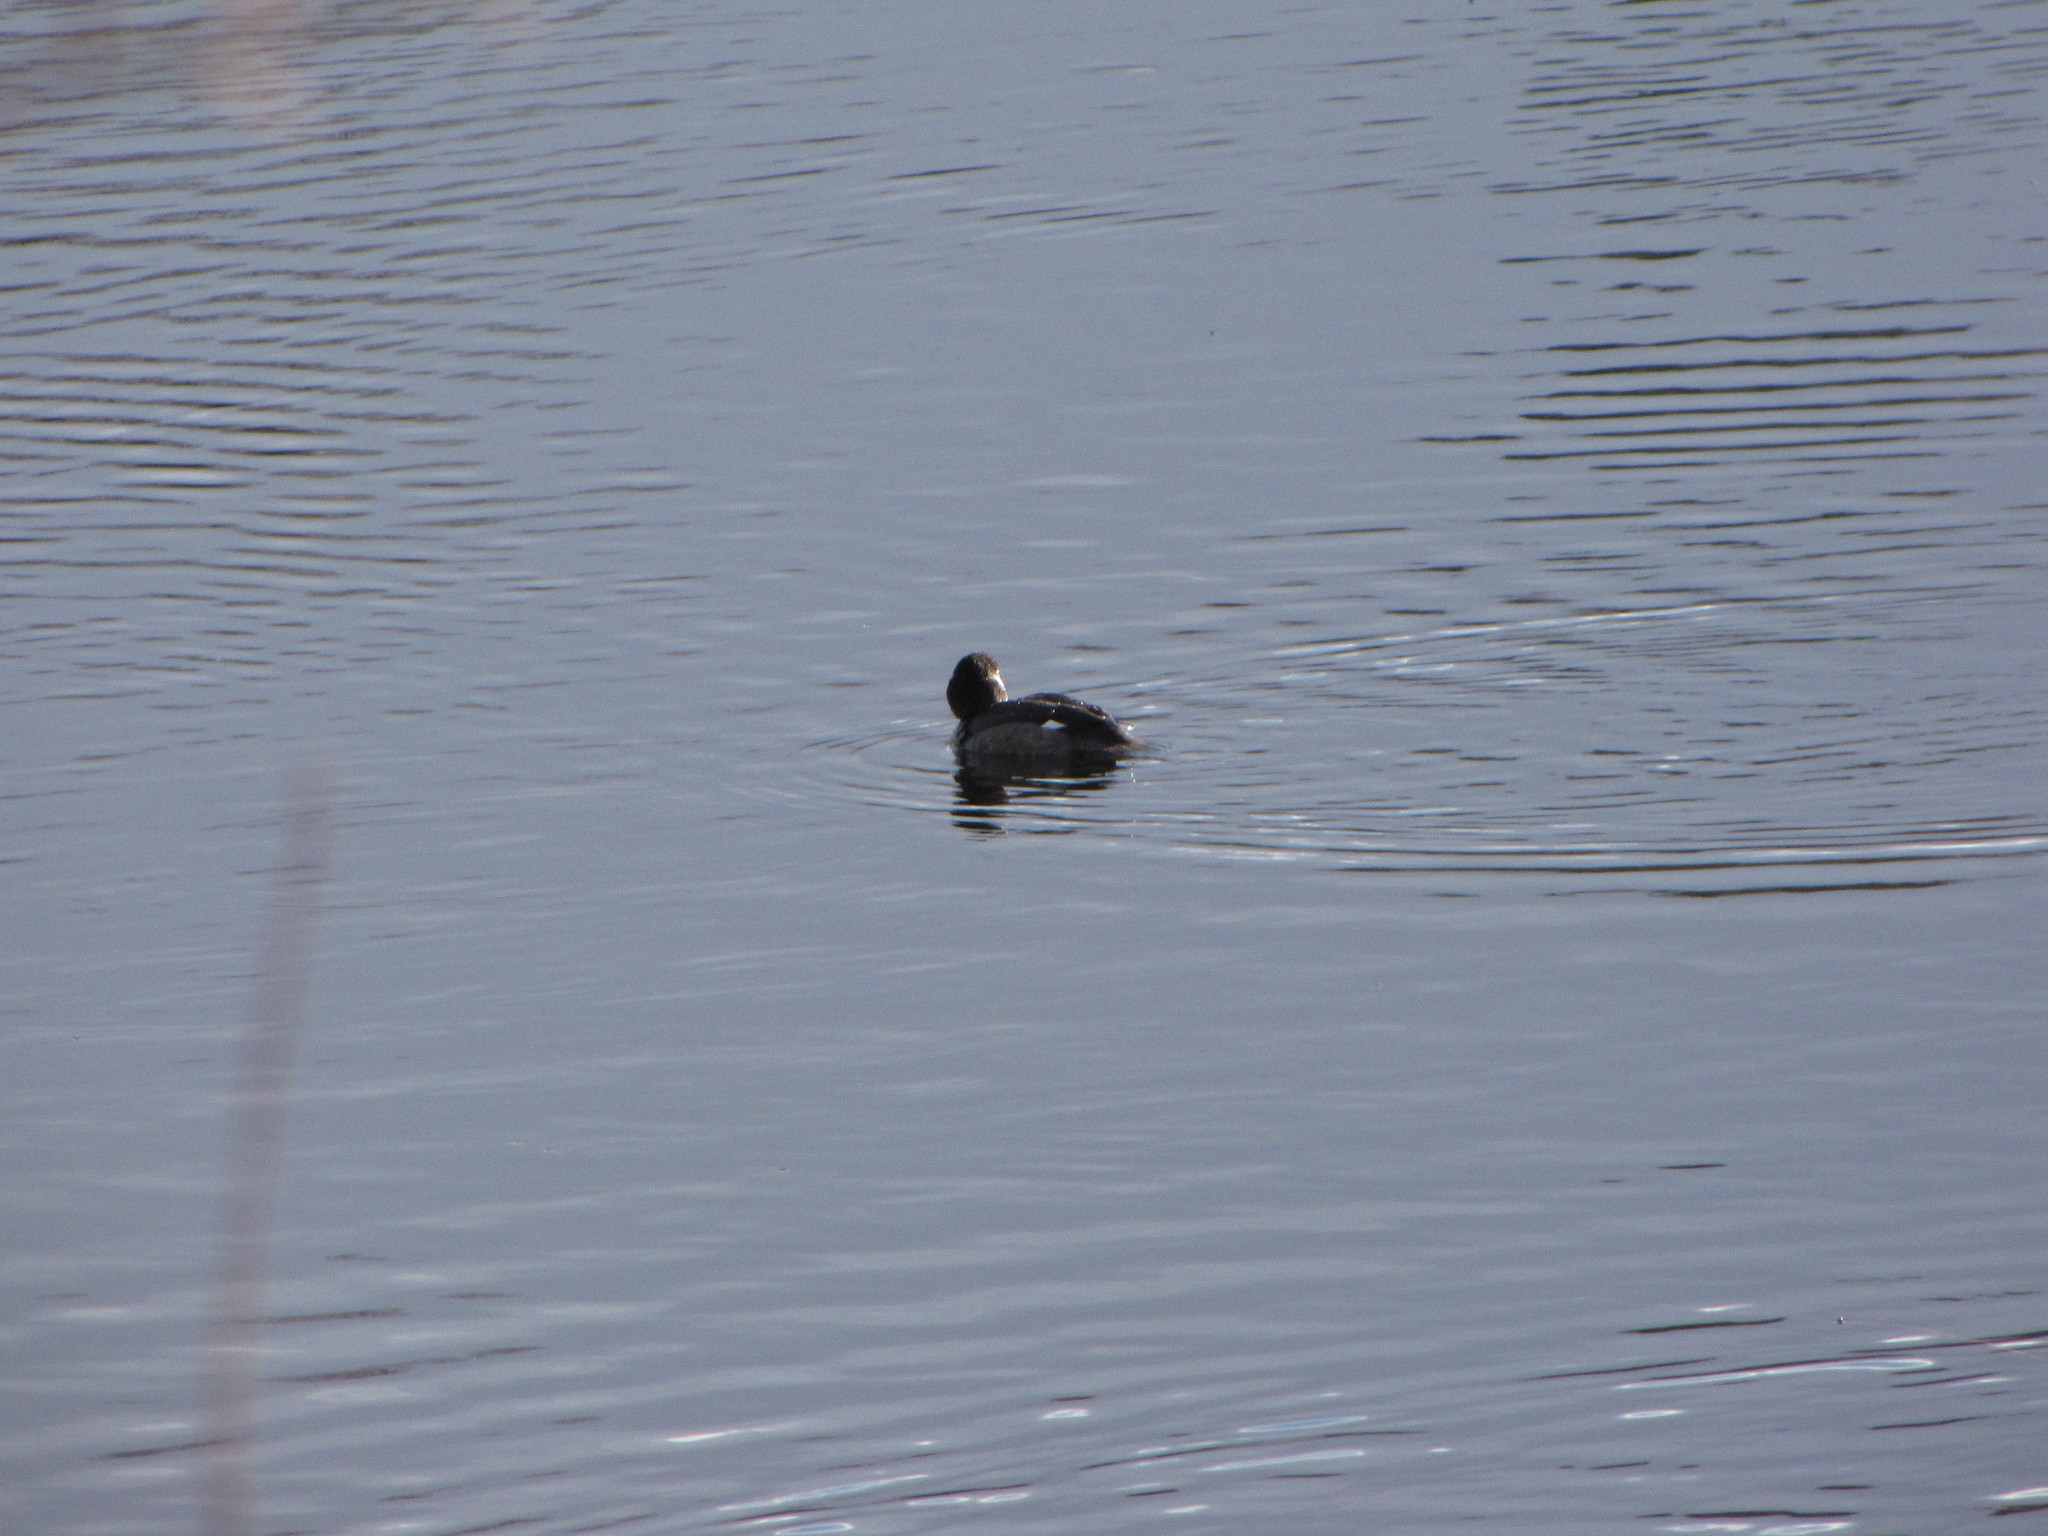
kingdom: Animalia
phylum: Chordata
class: Aves
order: Anseriformes
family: Anatidae
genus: Bucephala
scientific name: Bucephala albeola
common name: Bufflehead
